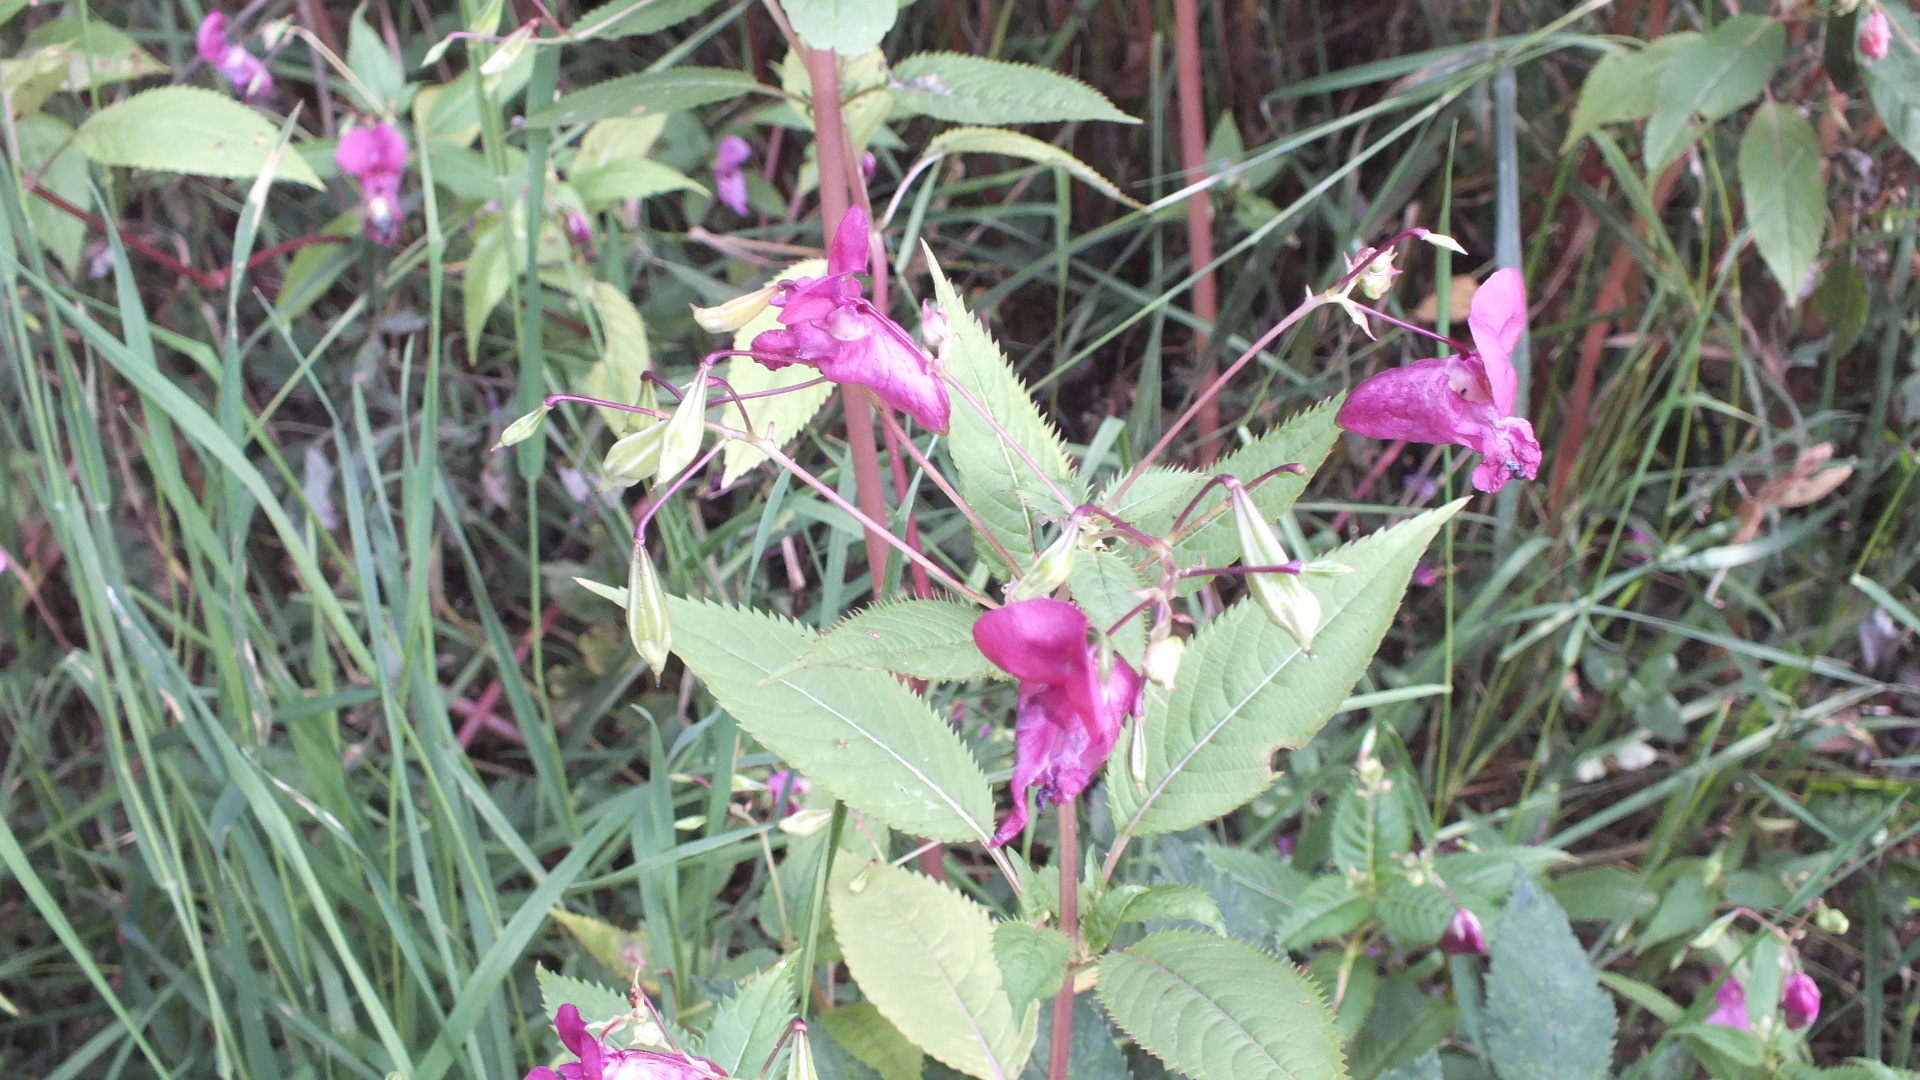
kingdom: Plantae
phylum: Tracheophyta
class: Magnoliopsida
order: Ericales
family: Balsaminaceae
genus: Impatiens
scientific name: Impatiens glandulifera
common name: Himalayan balsam
